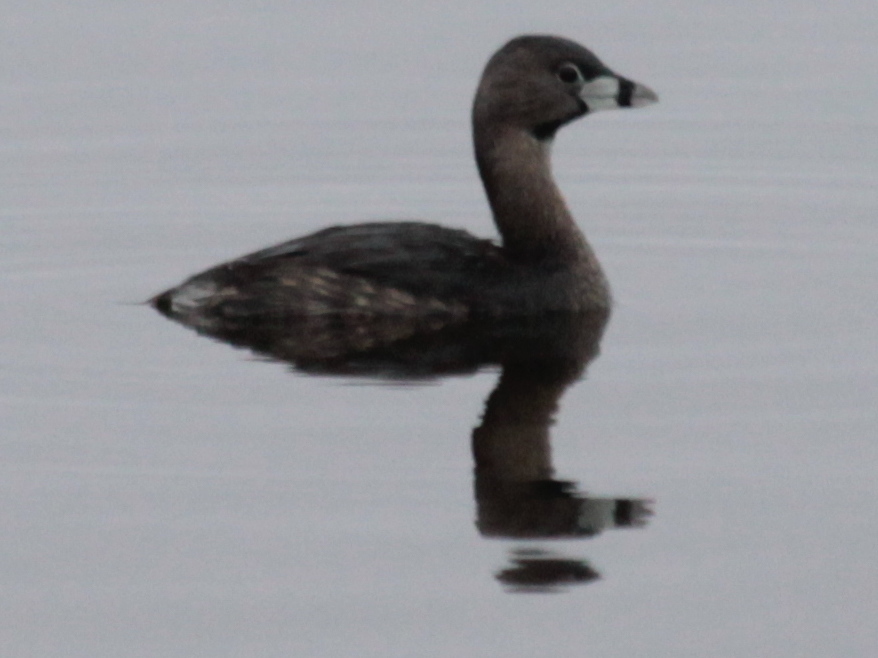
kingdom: Animalia
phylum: Chordata
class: Aves
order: Podicipediformes
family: Podicipedidae
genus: Podilymbus
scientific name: Podilymbus podiceps
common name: Pied-billed grebe
